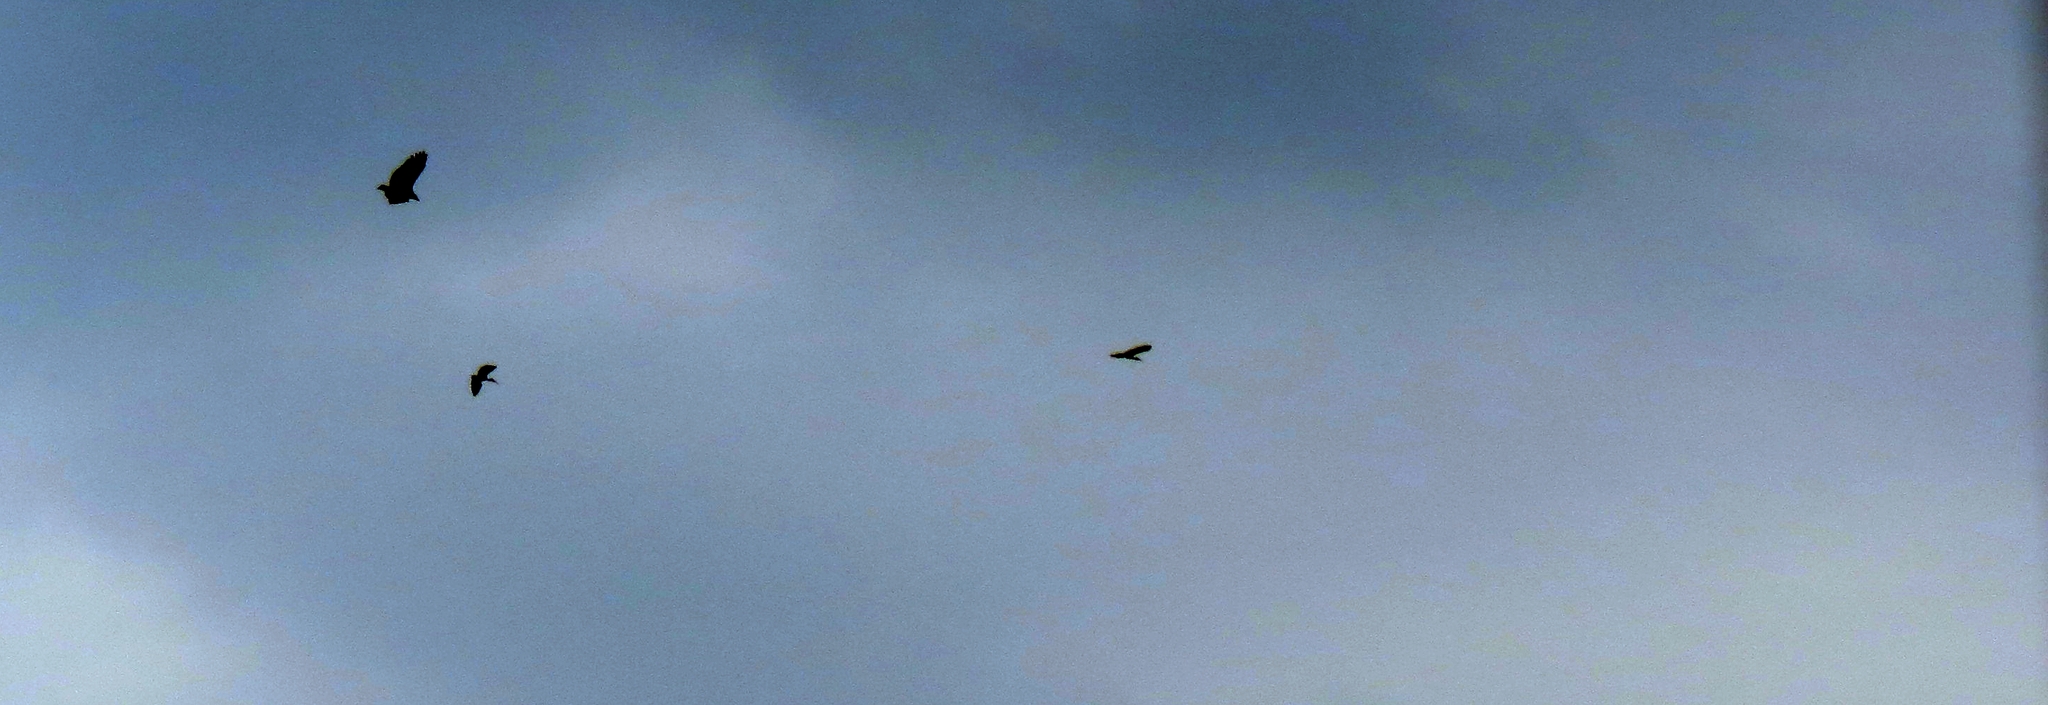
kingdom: Animalia
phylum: Chordata
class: Aves
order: Pelecaniformes
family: Threskiornithidae
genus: Phimosus
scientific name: Phimosus infuscatus
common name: Bare-faced ibis
